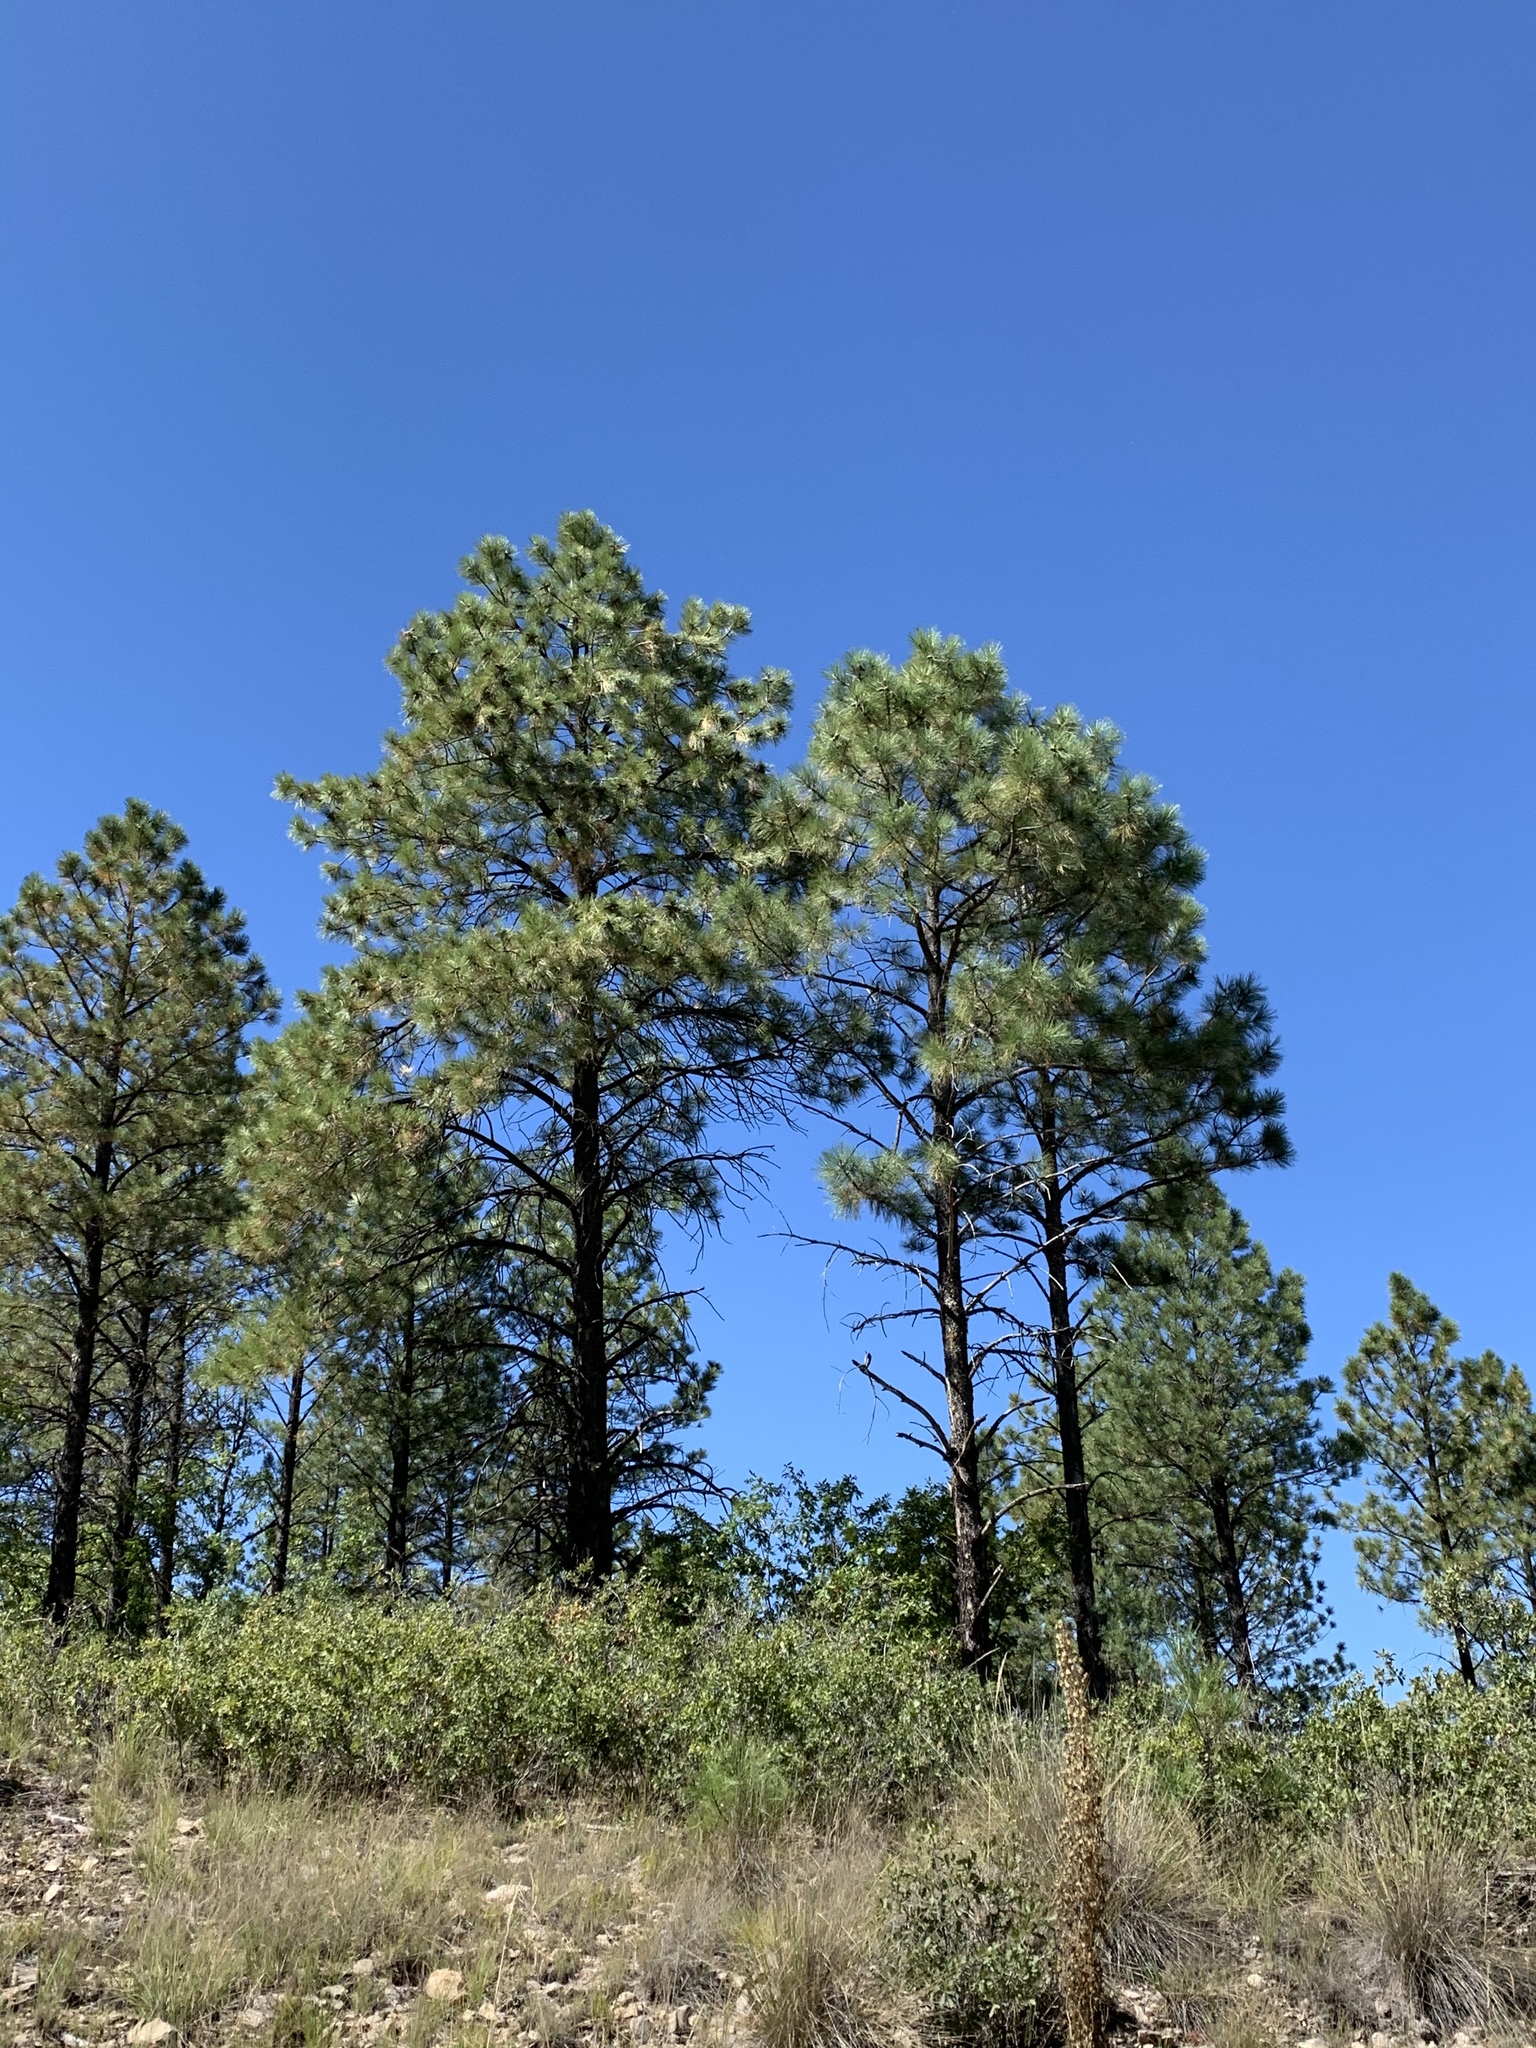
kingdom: Plantae
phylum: Tracheophyta
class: Pinopsida
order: Pinales
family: Pinaceae
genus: Pinus
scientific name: Pinus ponderosa
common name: Western yellow-pine
